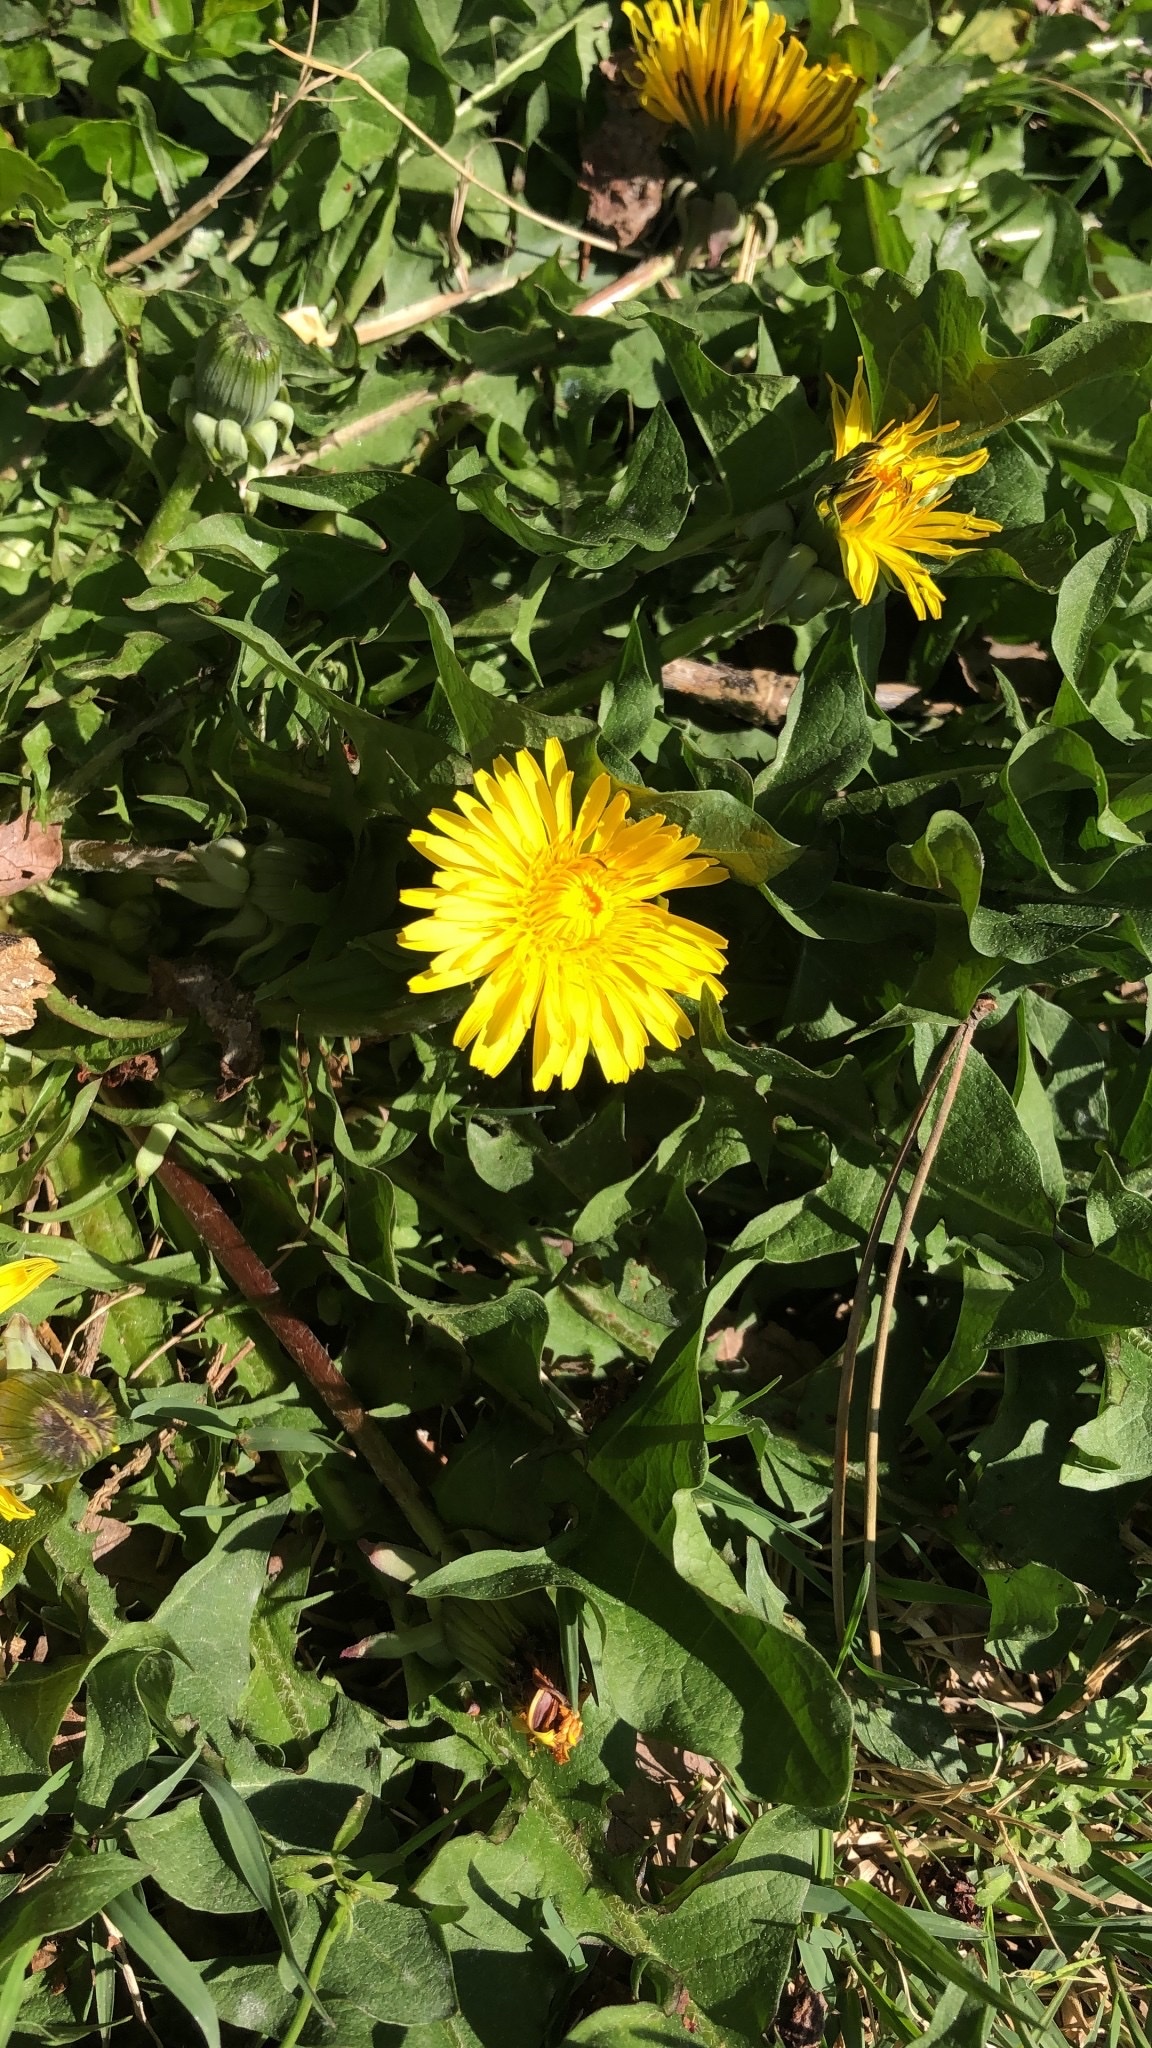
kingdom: Plantae
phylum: Tracheophyta
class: Magnoliopsida
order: Asterales
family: Asteraceae
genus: Taraxacum
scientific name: Taraxacum officinale
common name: Common dandelion
